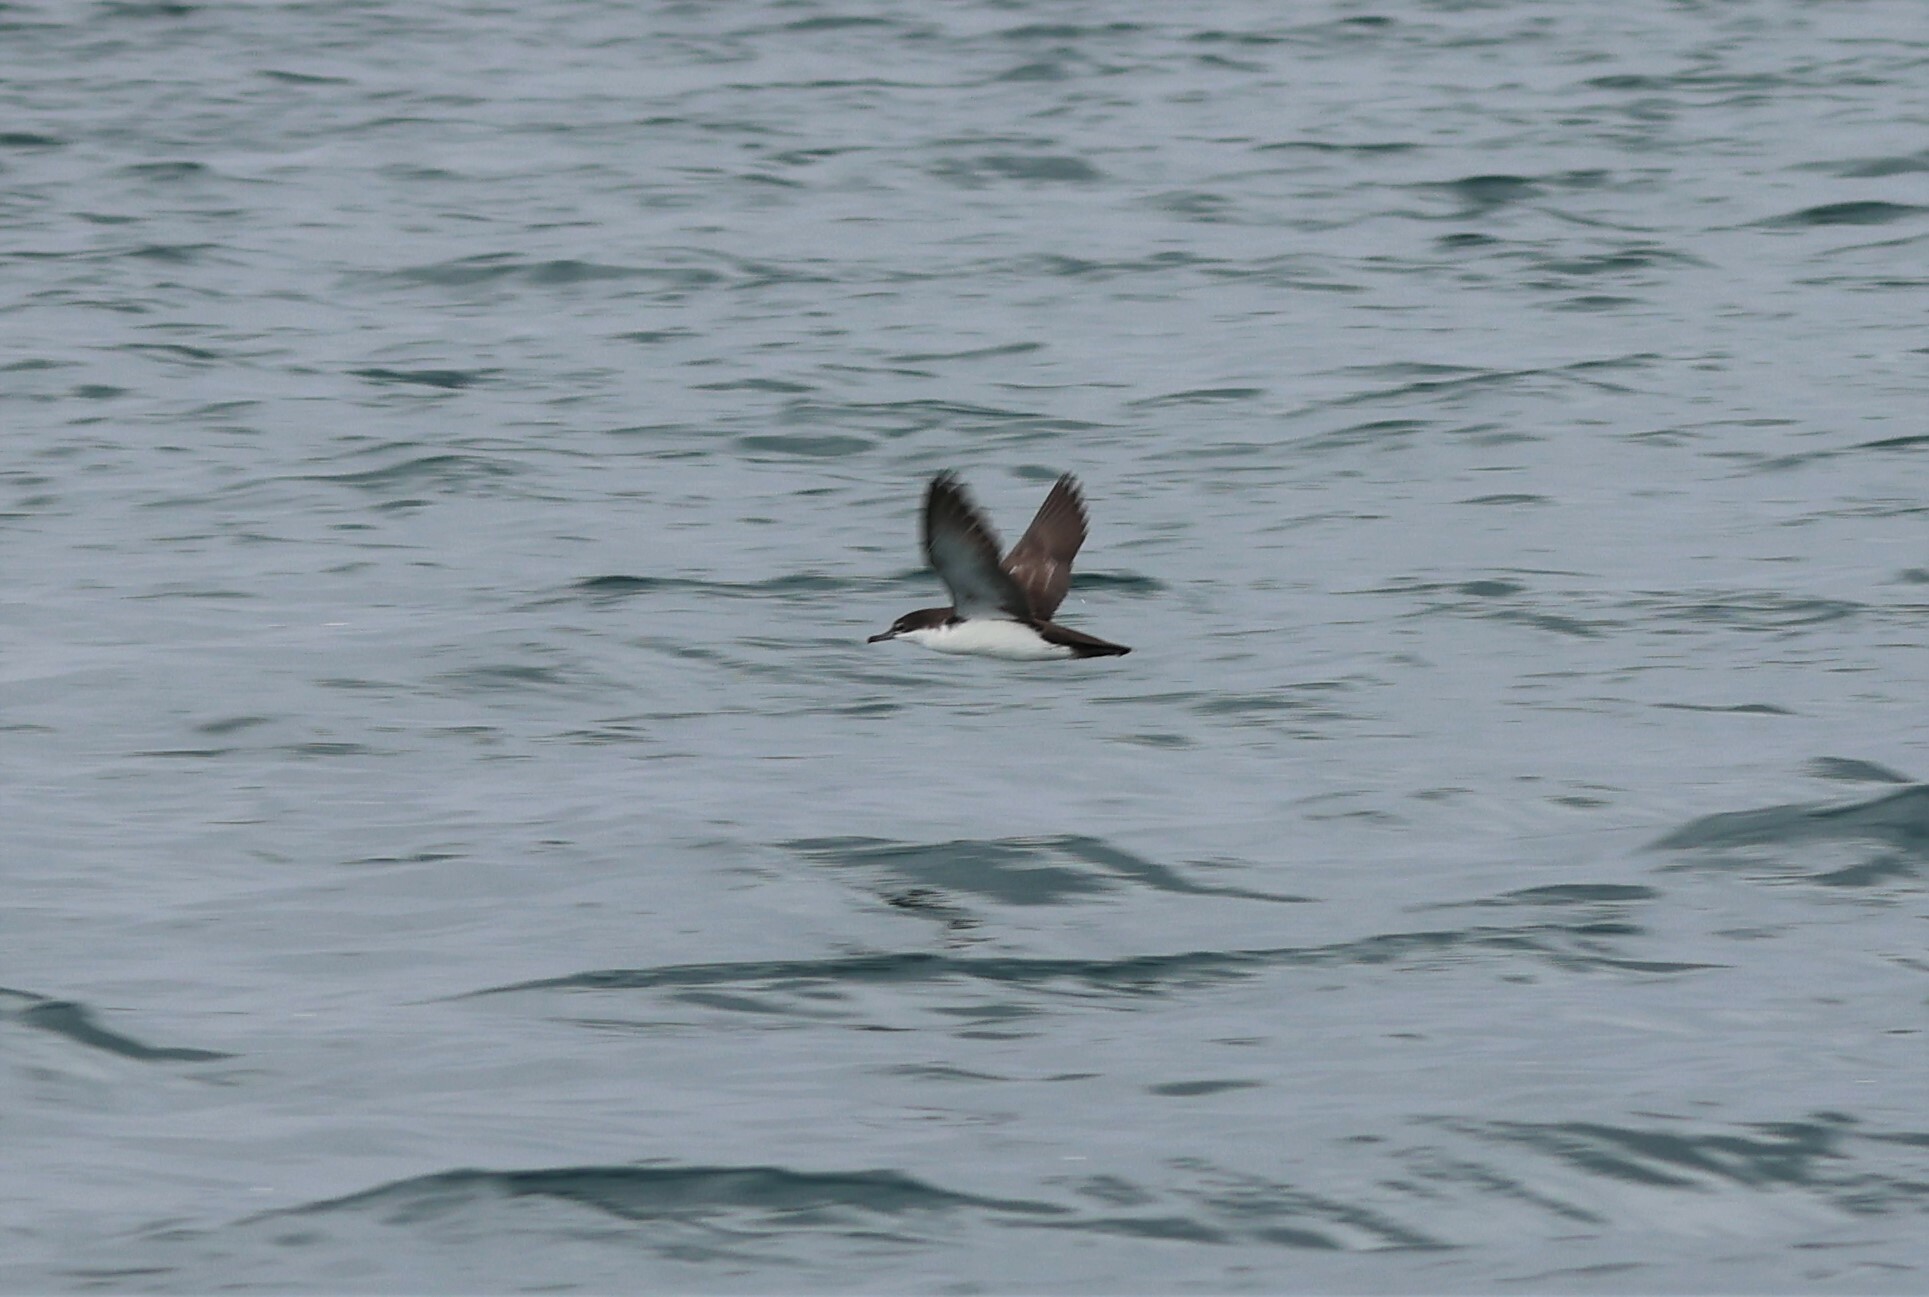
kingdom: Animalia
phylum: Chordata
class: Aves
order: Procellariiformes
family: Procellariidae
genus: Puffinus
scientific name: Puffinus subalaris
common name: Galapagos shearwater
